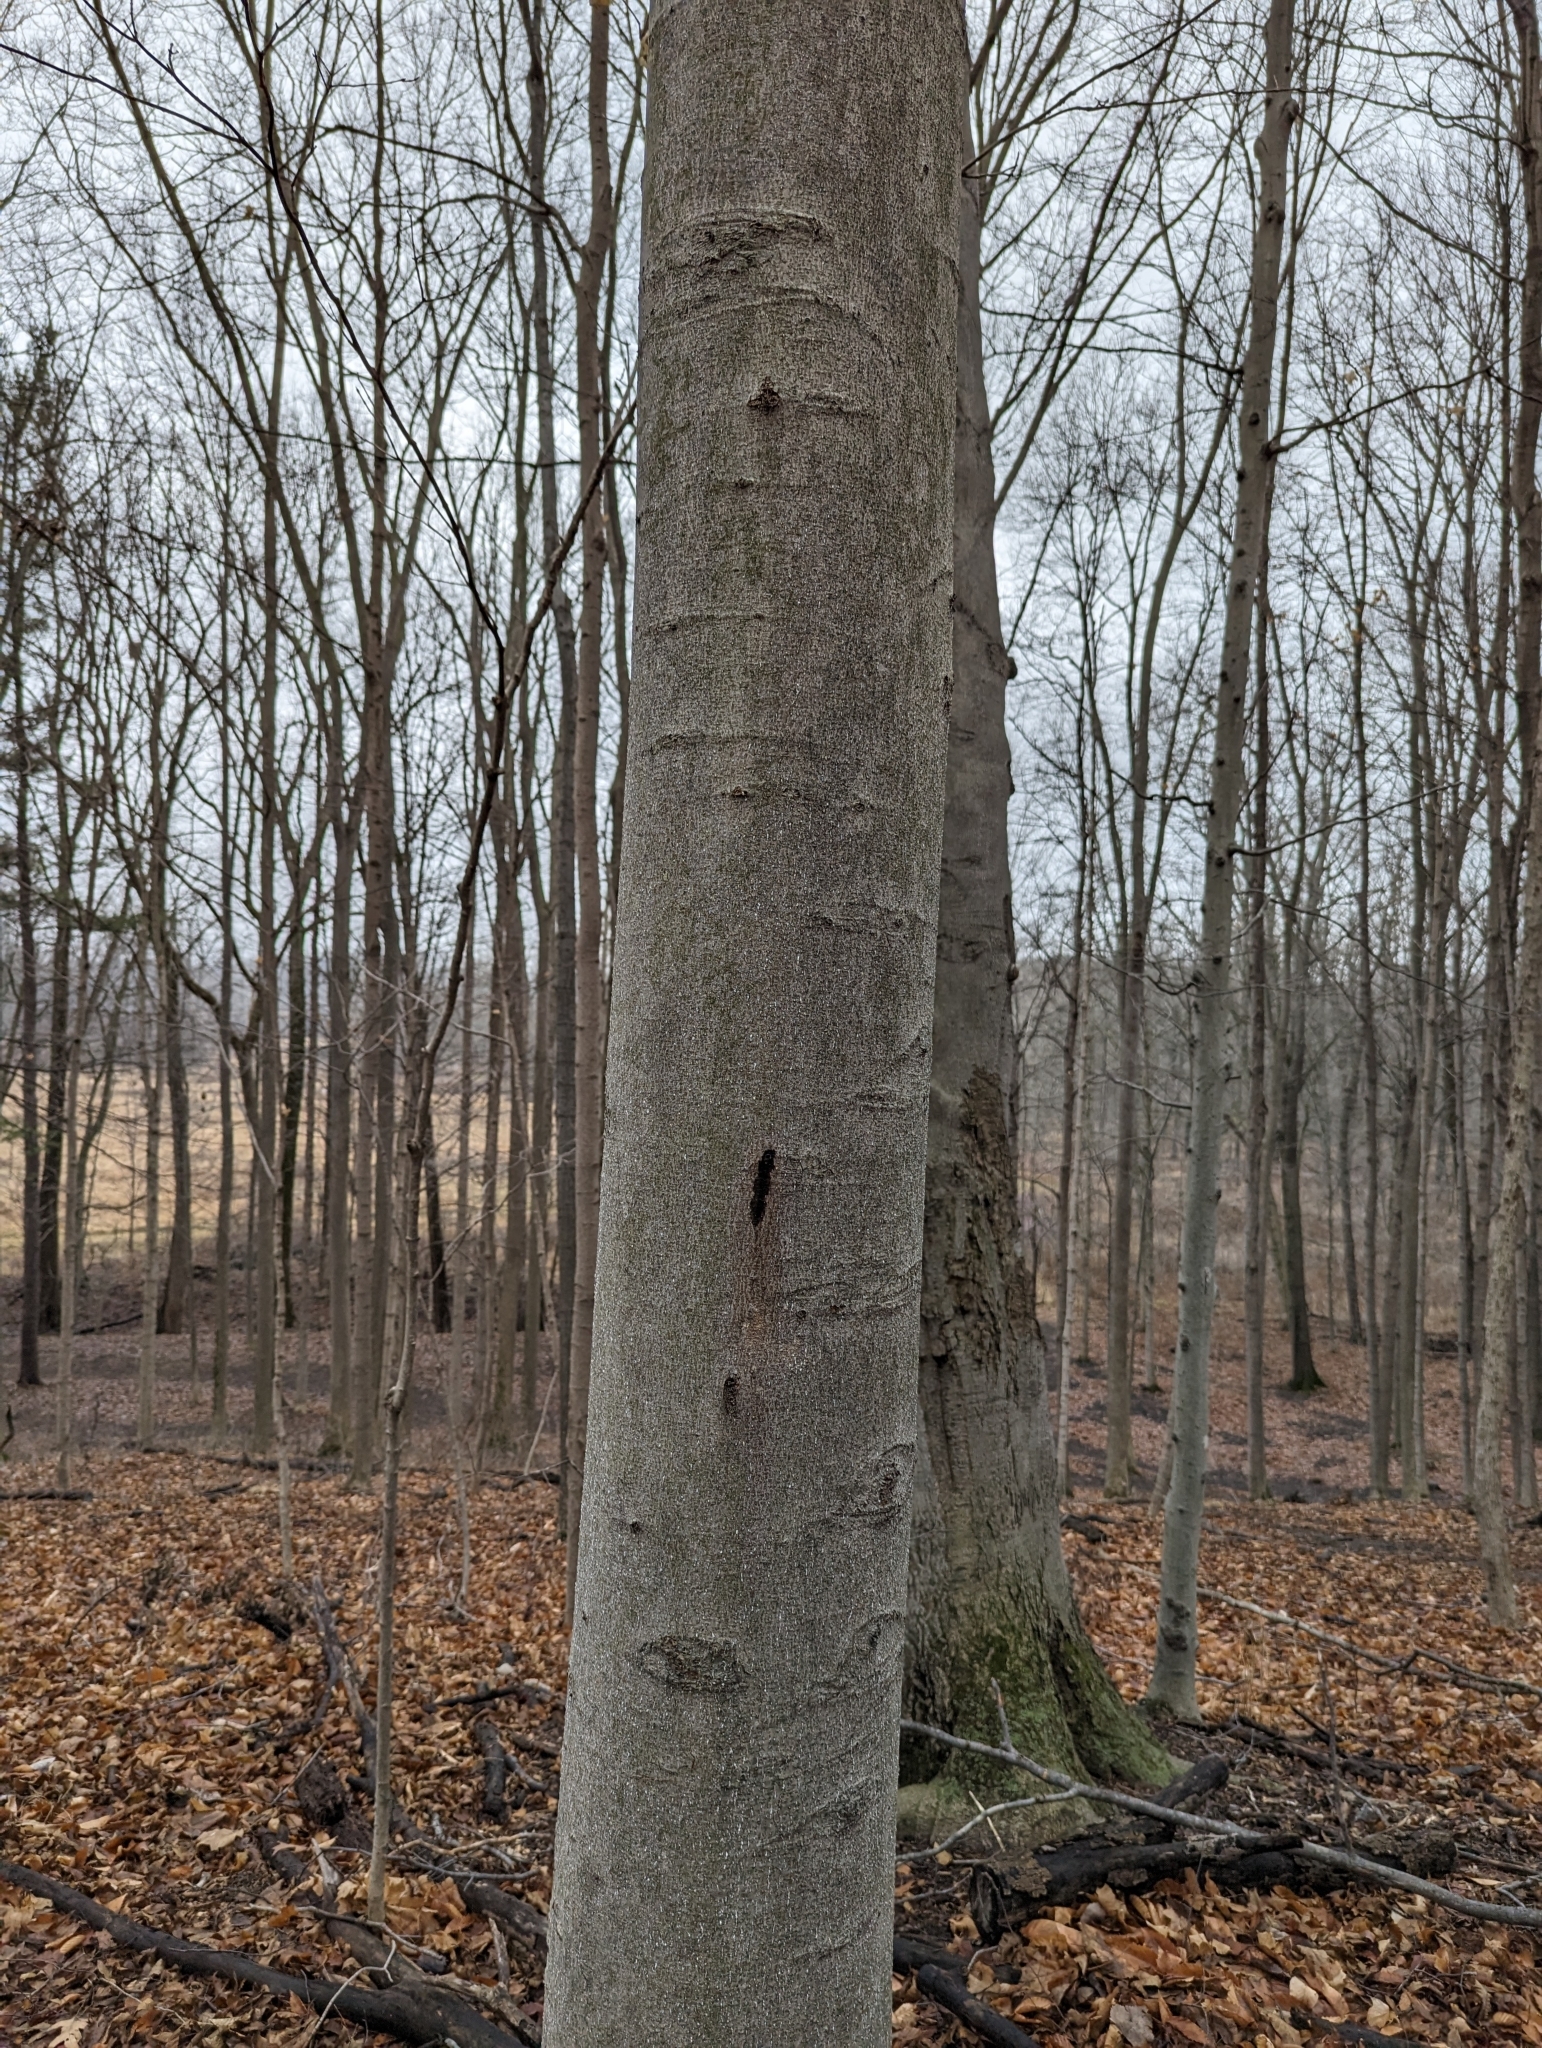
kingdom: Plantae
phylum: Tracheophyta
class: Magnoliopsida
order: Fagales
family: Fagaceae
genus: Fagus
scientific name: Fagus grandifolia
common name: American beech
